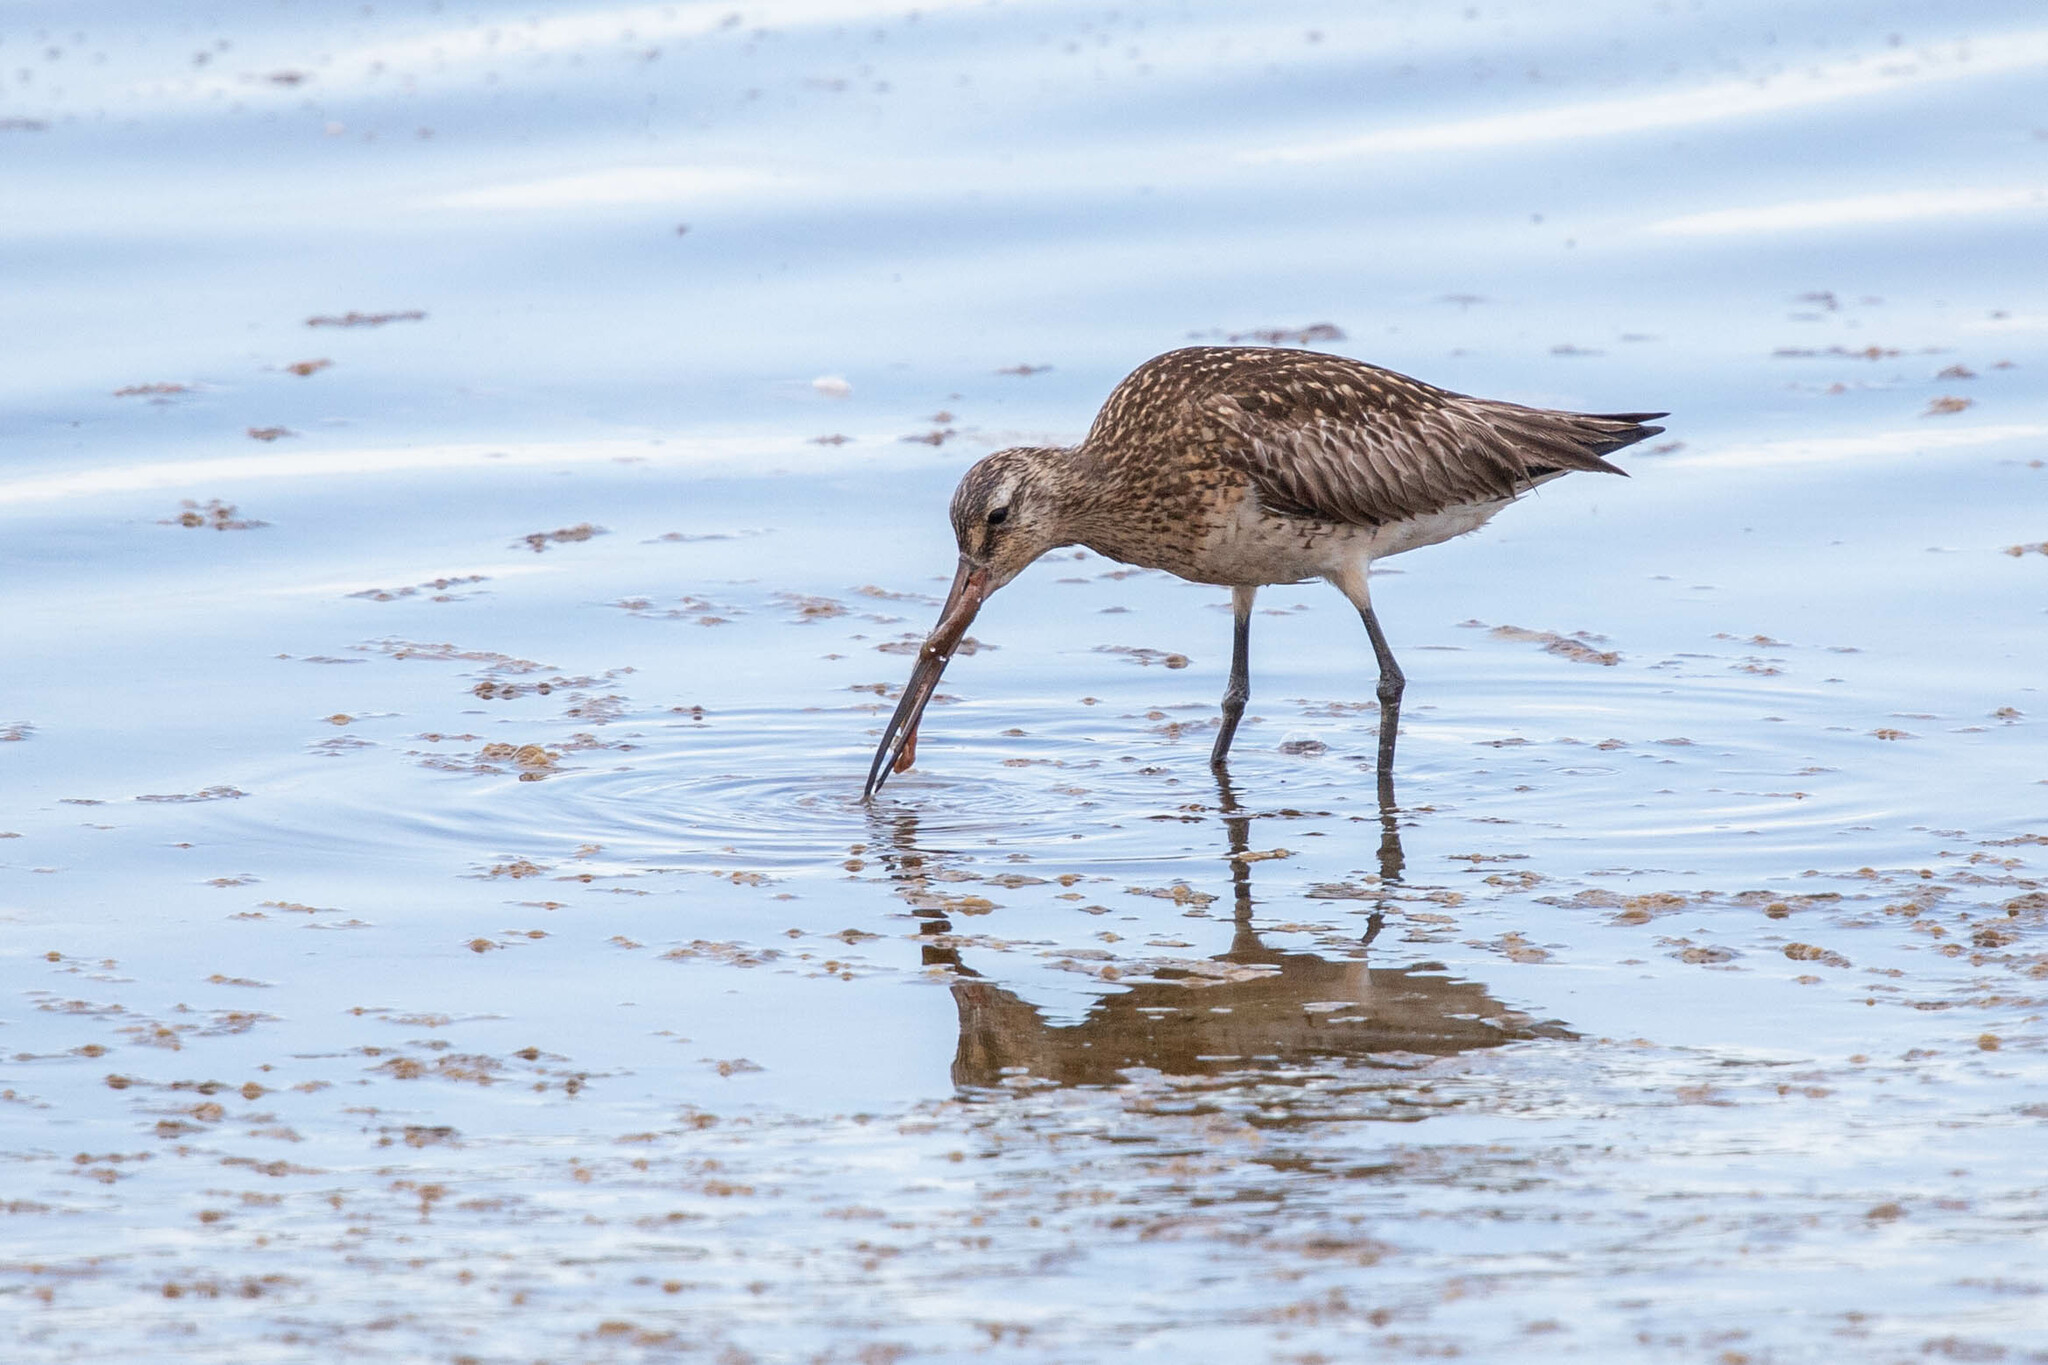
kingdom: Animalia
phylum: Chordata
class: Aves
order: Charadriiformes
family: Scolopacidae
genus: Limosa
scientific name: Limosa lapponica
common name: Bar-tailed godwit
